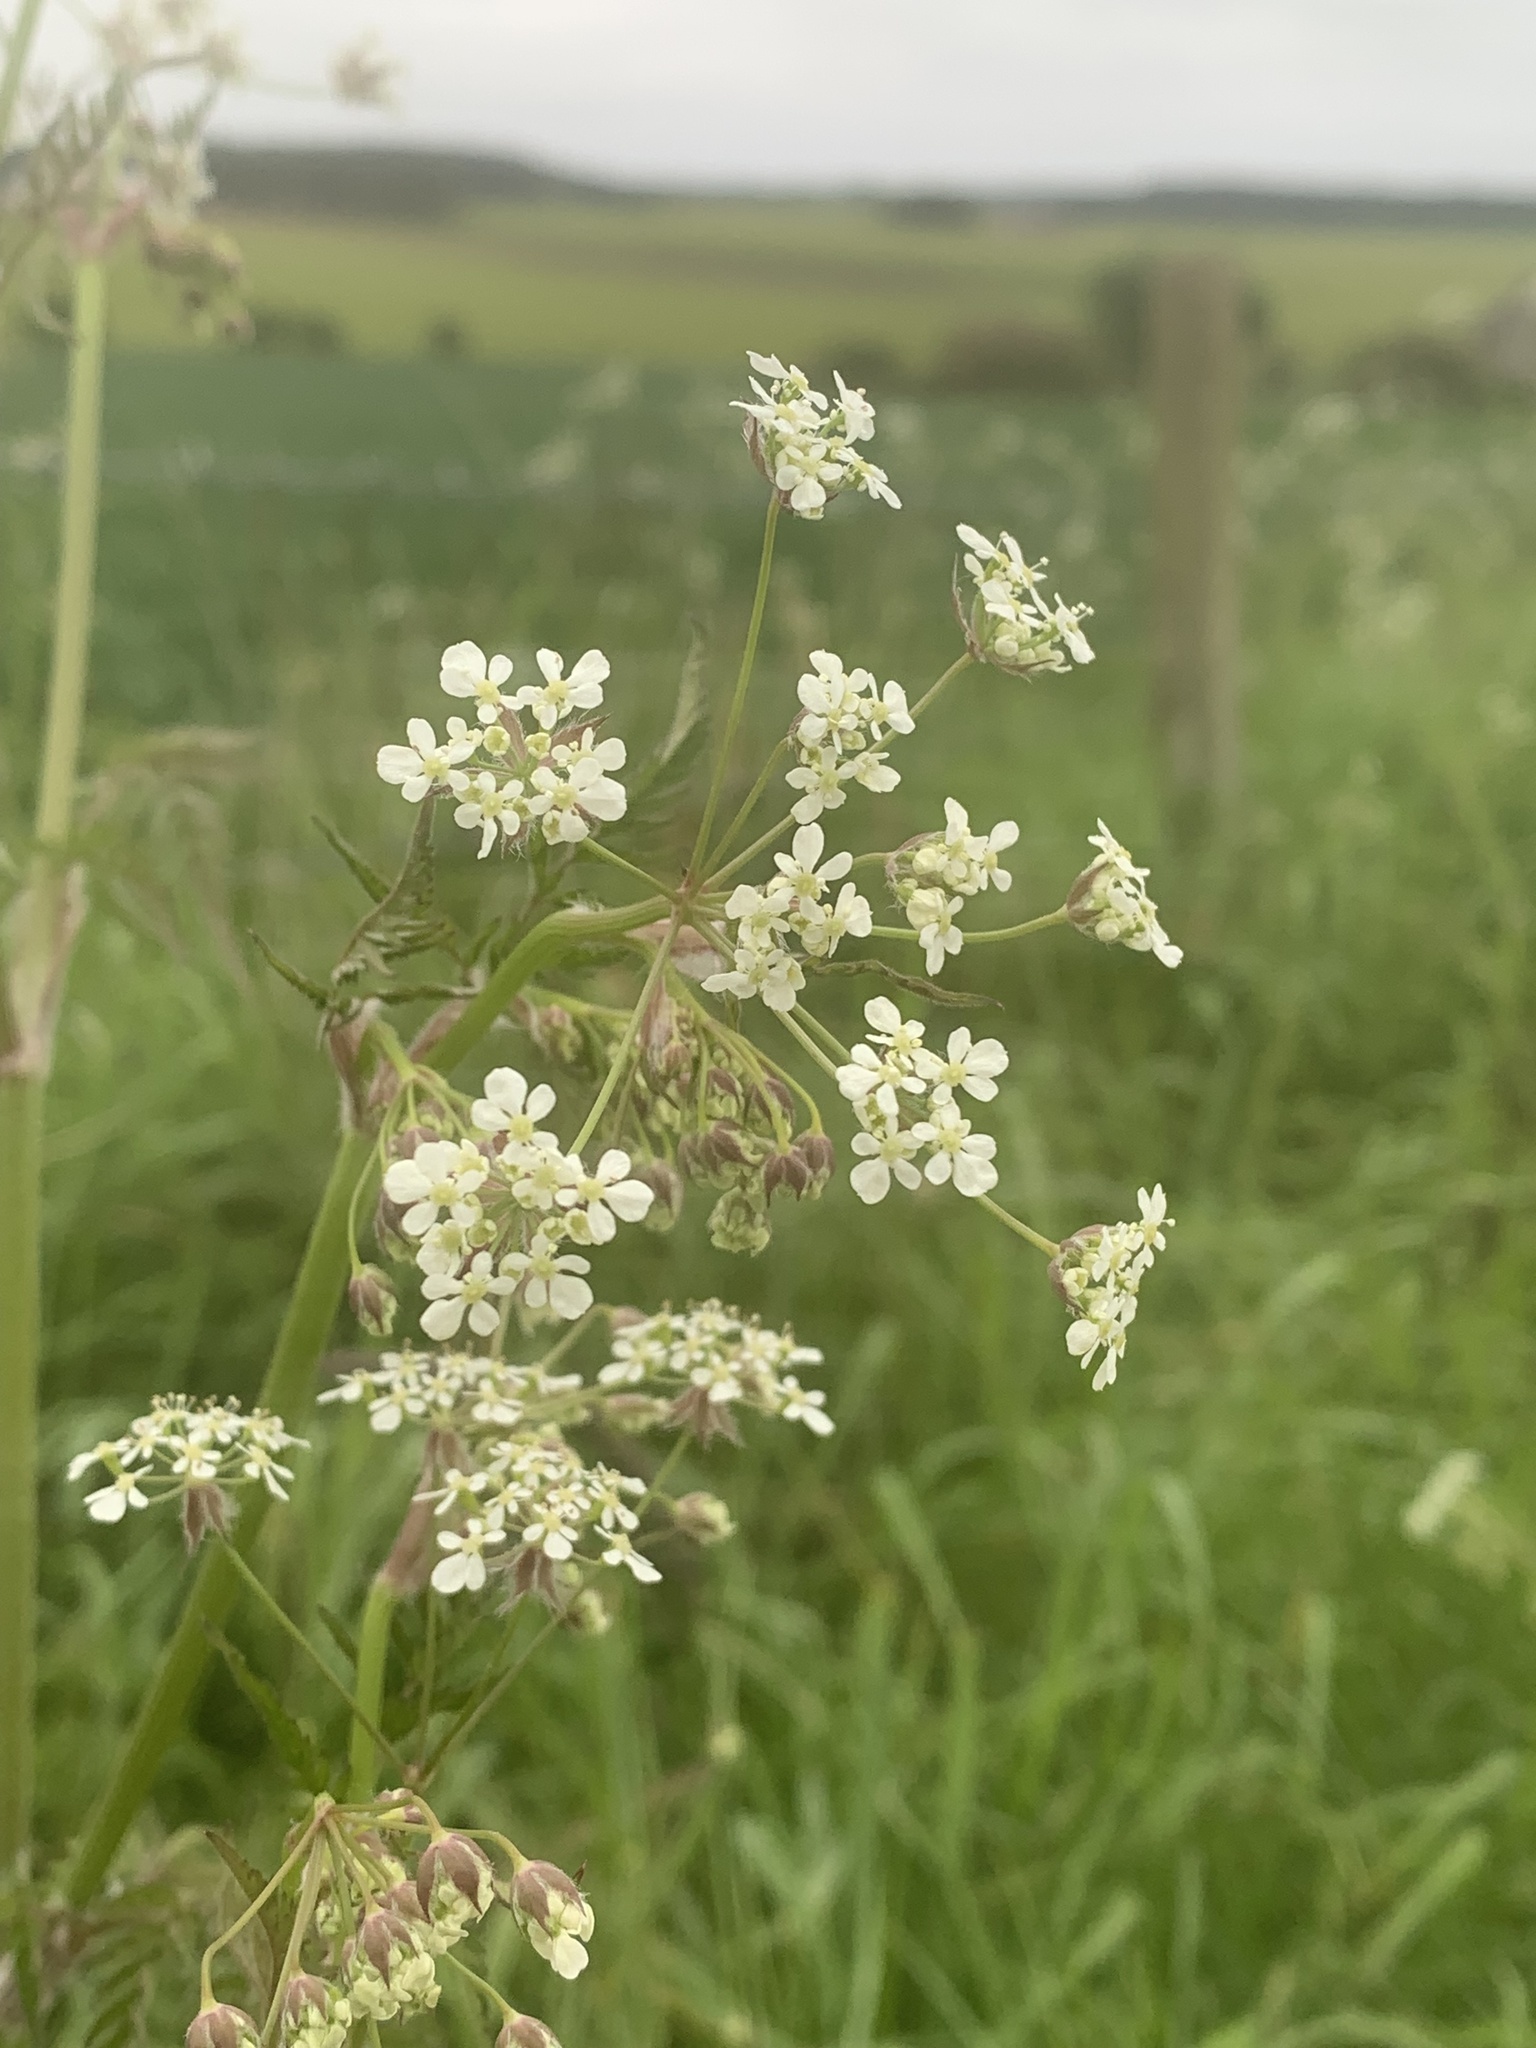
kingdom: Plantae
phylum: Tracheophyta
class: Magnoliopsida
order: Apiales
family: Apiaceae
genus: Anthriscus
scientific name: Anthriscus sylvestris
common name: Cow parsley
